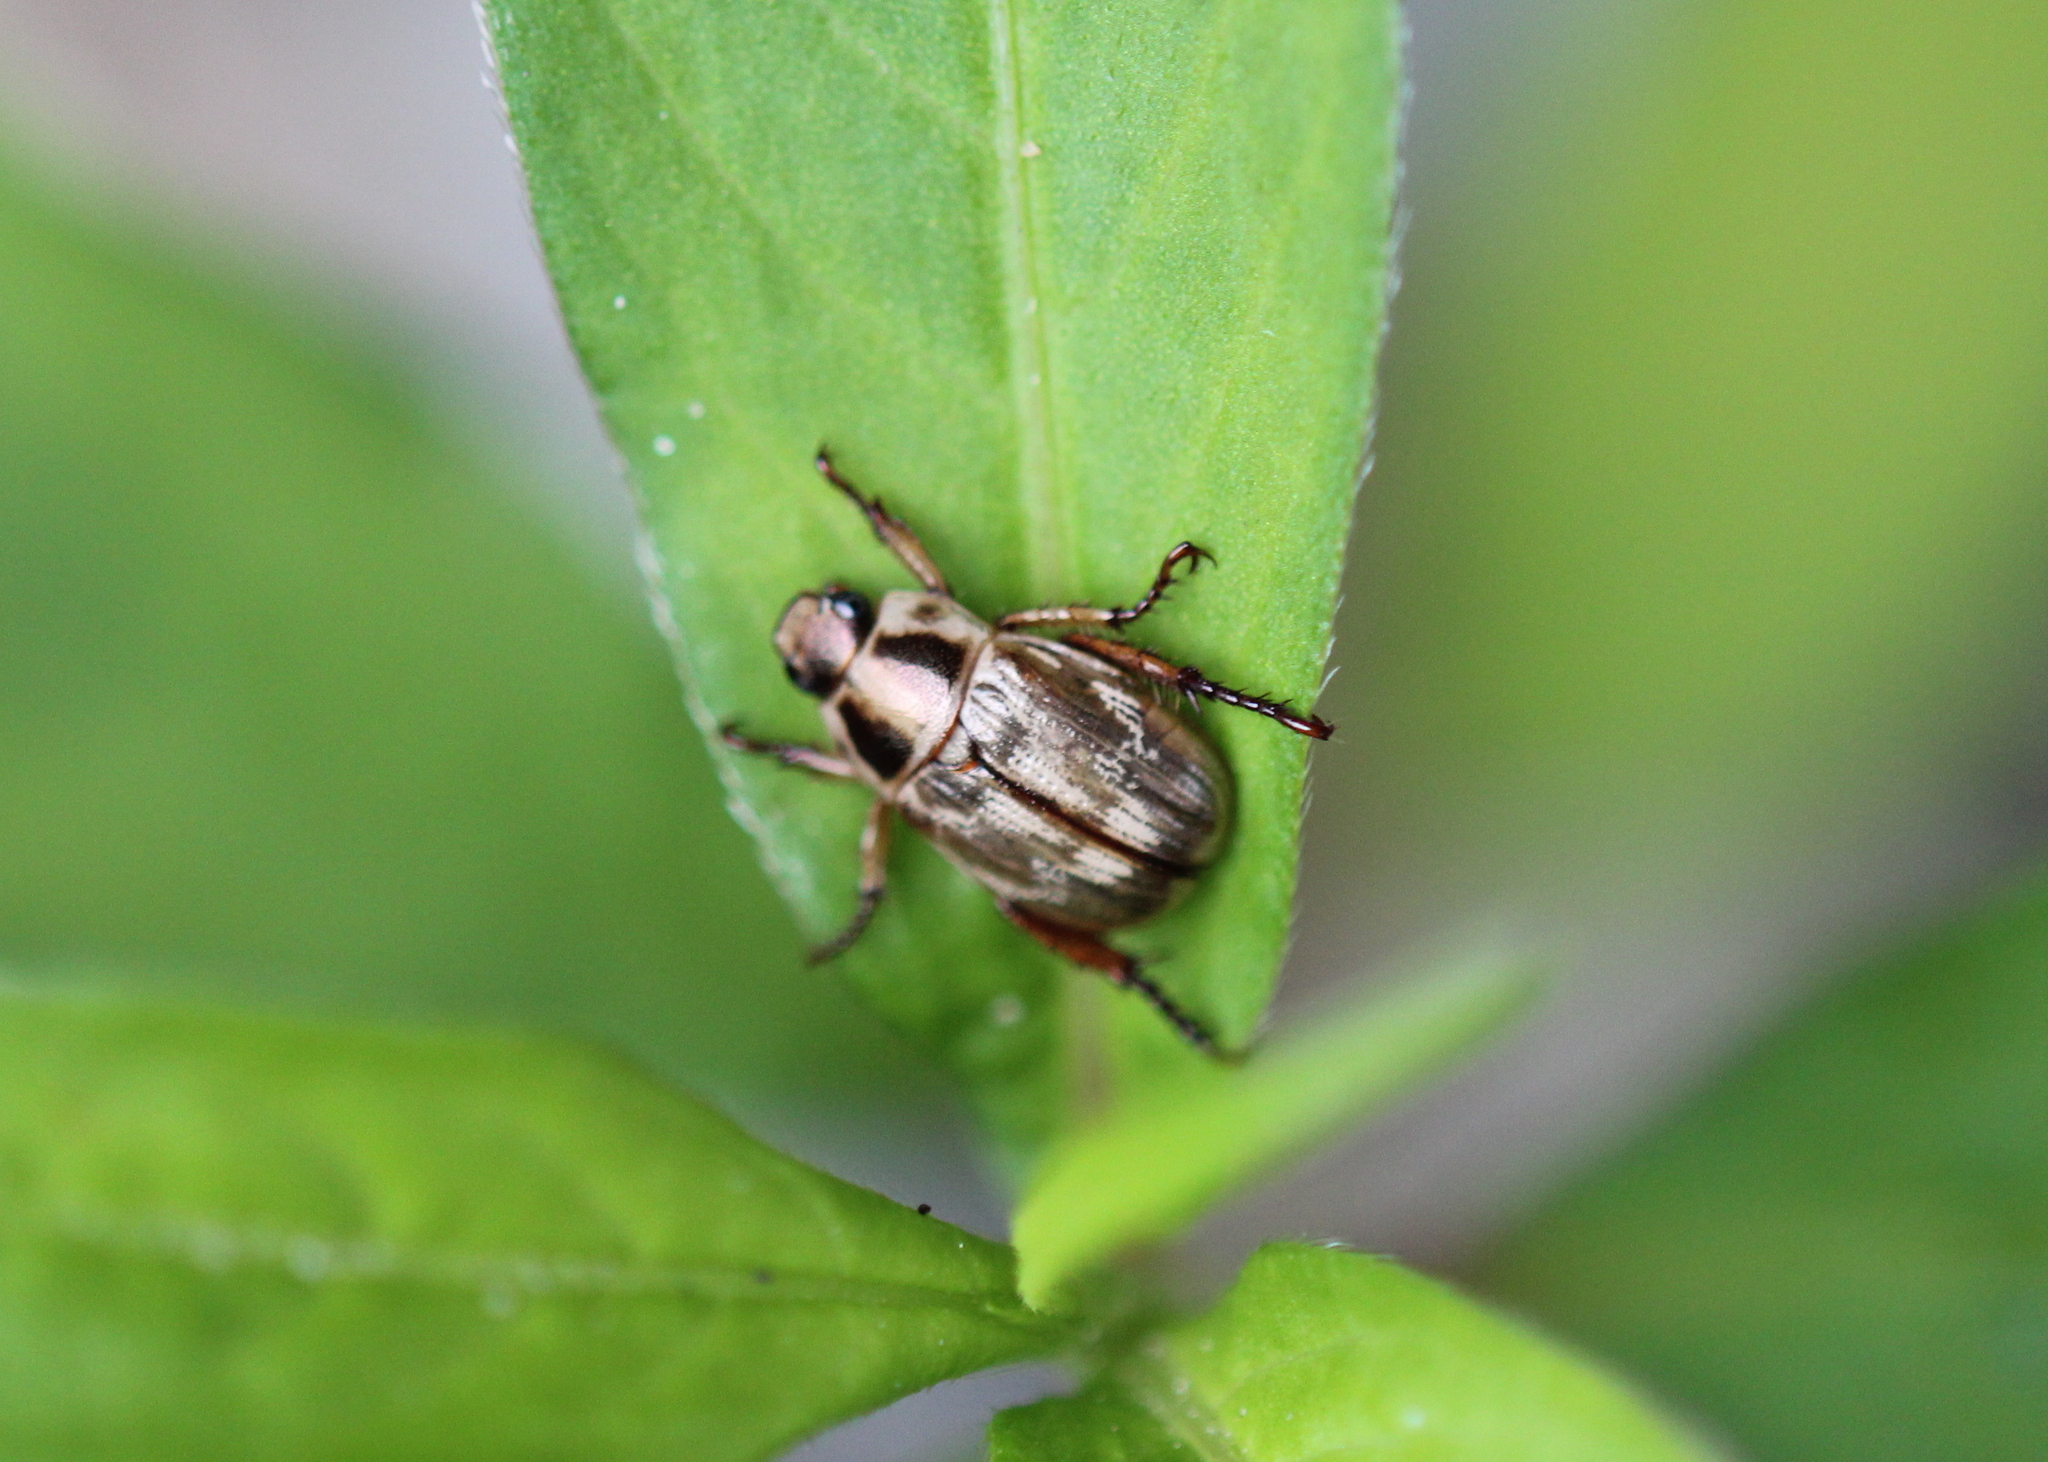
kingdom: Animalia
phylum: Arthropoda
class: Insecta
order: Coleoptera
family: Scarabaeidae
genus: Exomala
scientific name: Exomala orientalis
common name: Oriental beetle
